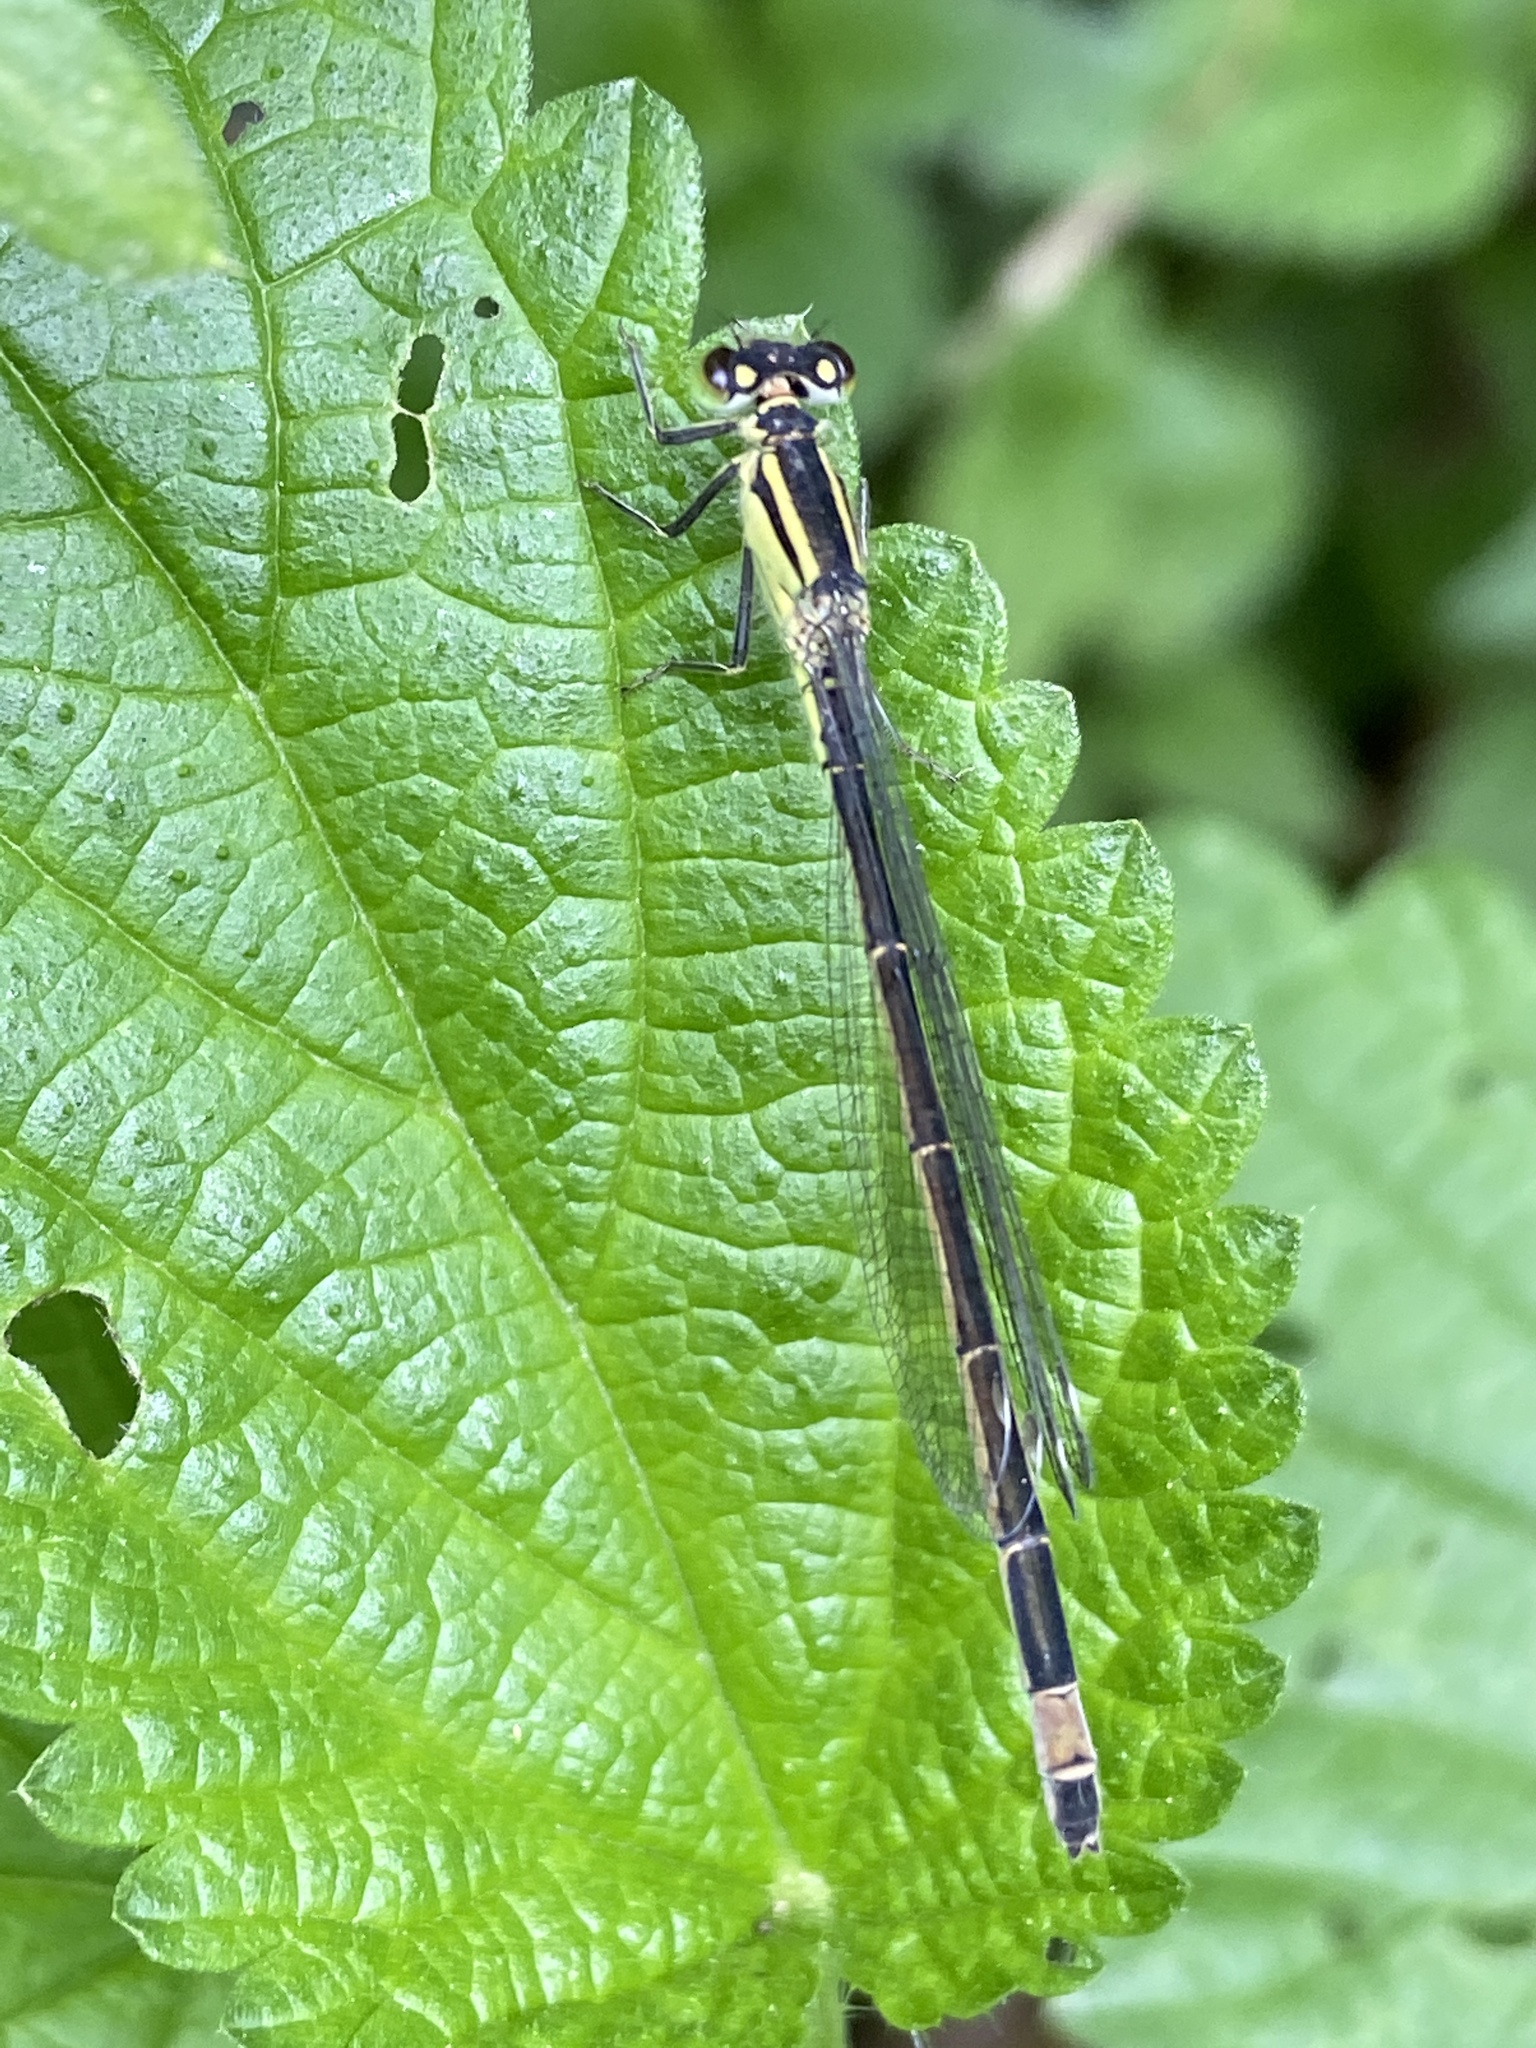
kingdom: Animalia
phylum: Arthropoda
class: Insecta
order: Odonata
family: Coenagrionidae
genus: Ischnura
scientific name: Ischnura elegans
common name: Blue-tailed damselfly
